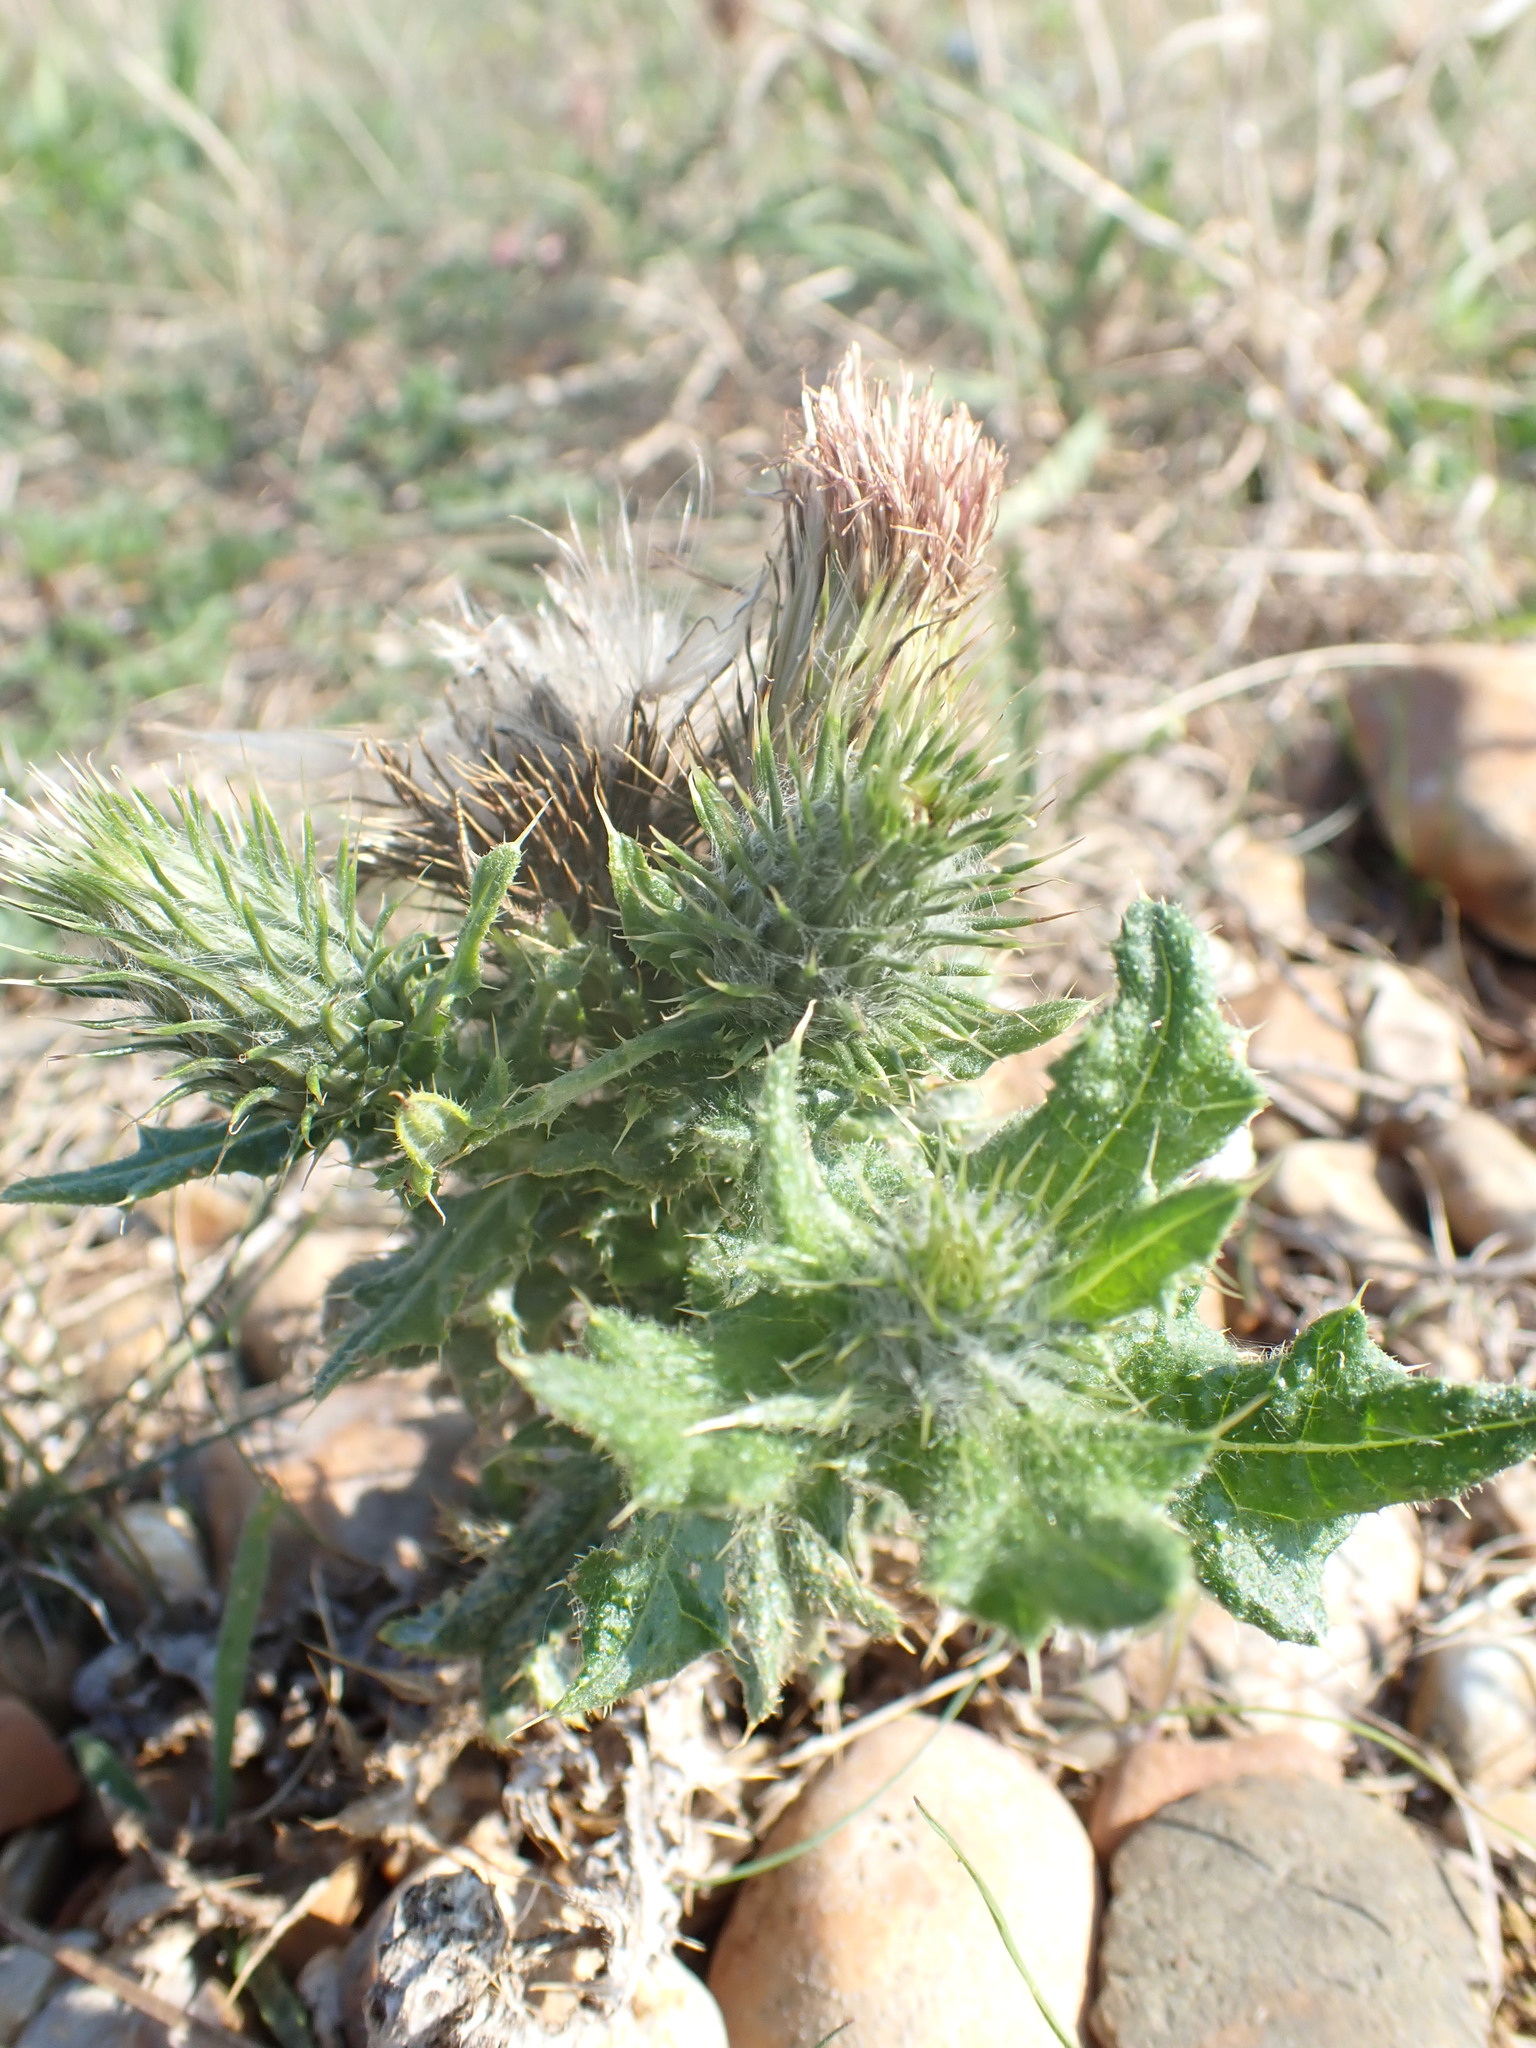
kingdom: Plantae
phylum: Tracheophyta
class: Magnoliopsida
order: Asterales
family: Asteraceae
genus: Cirsium
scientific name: Cirsium vulgare
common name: Bull thistle
